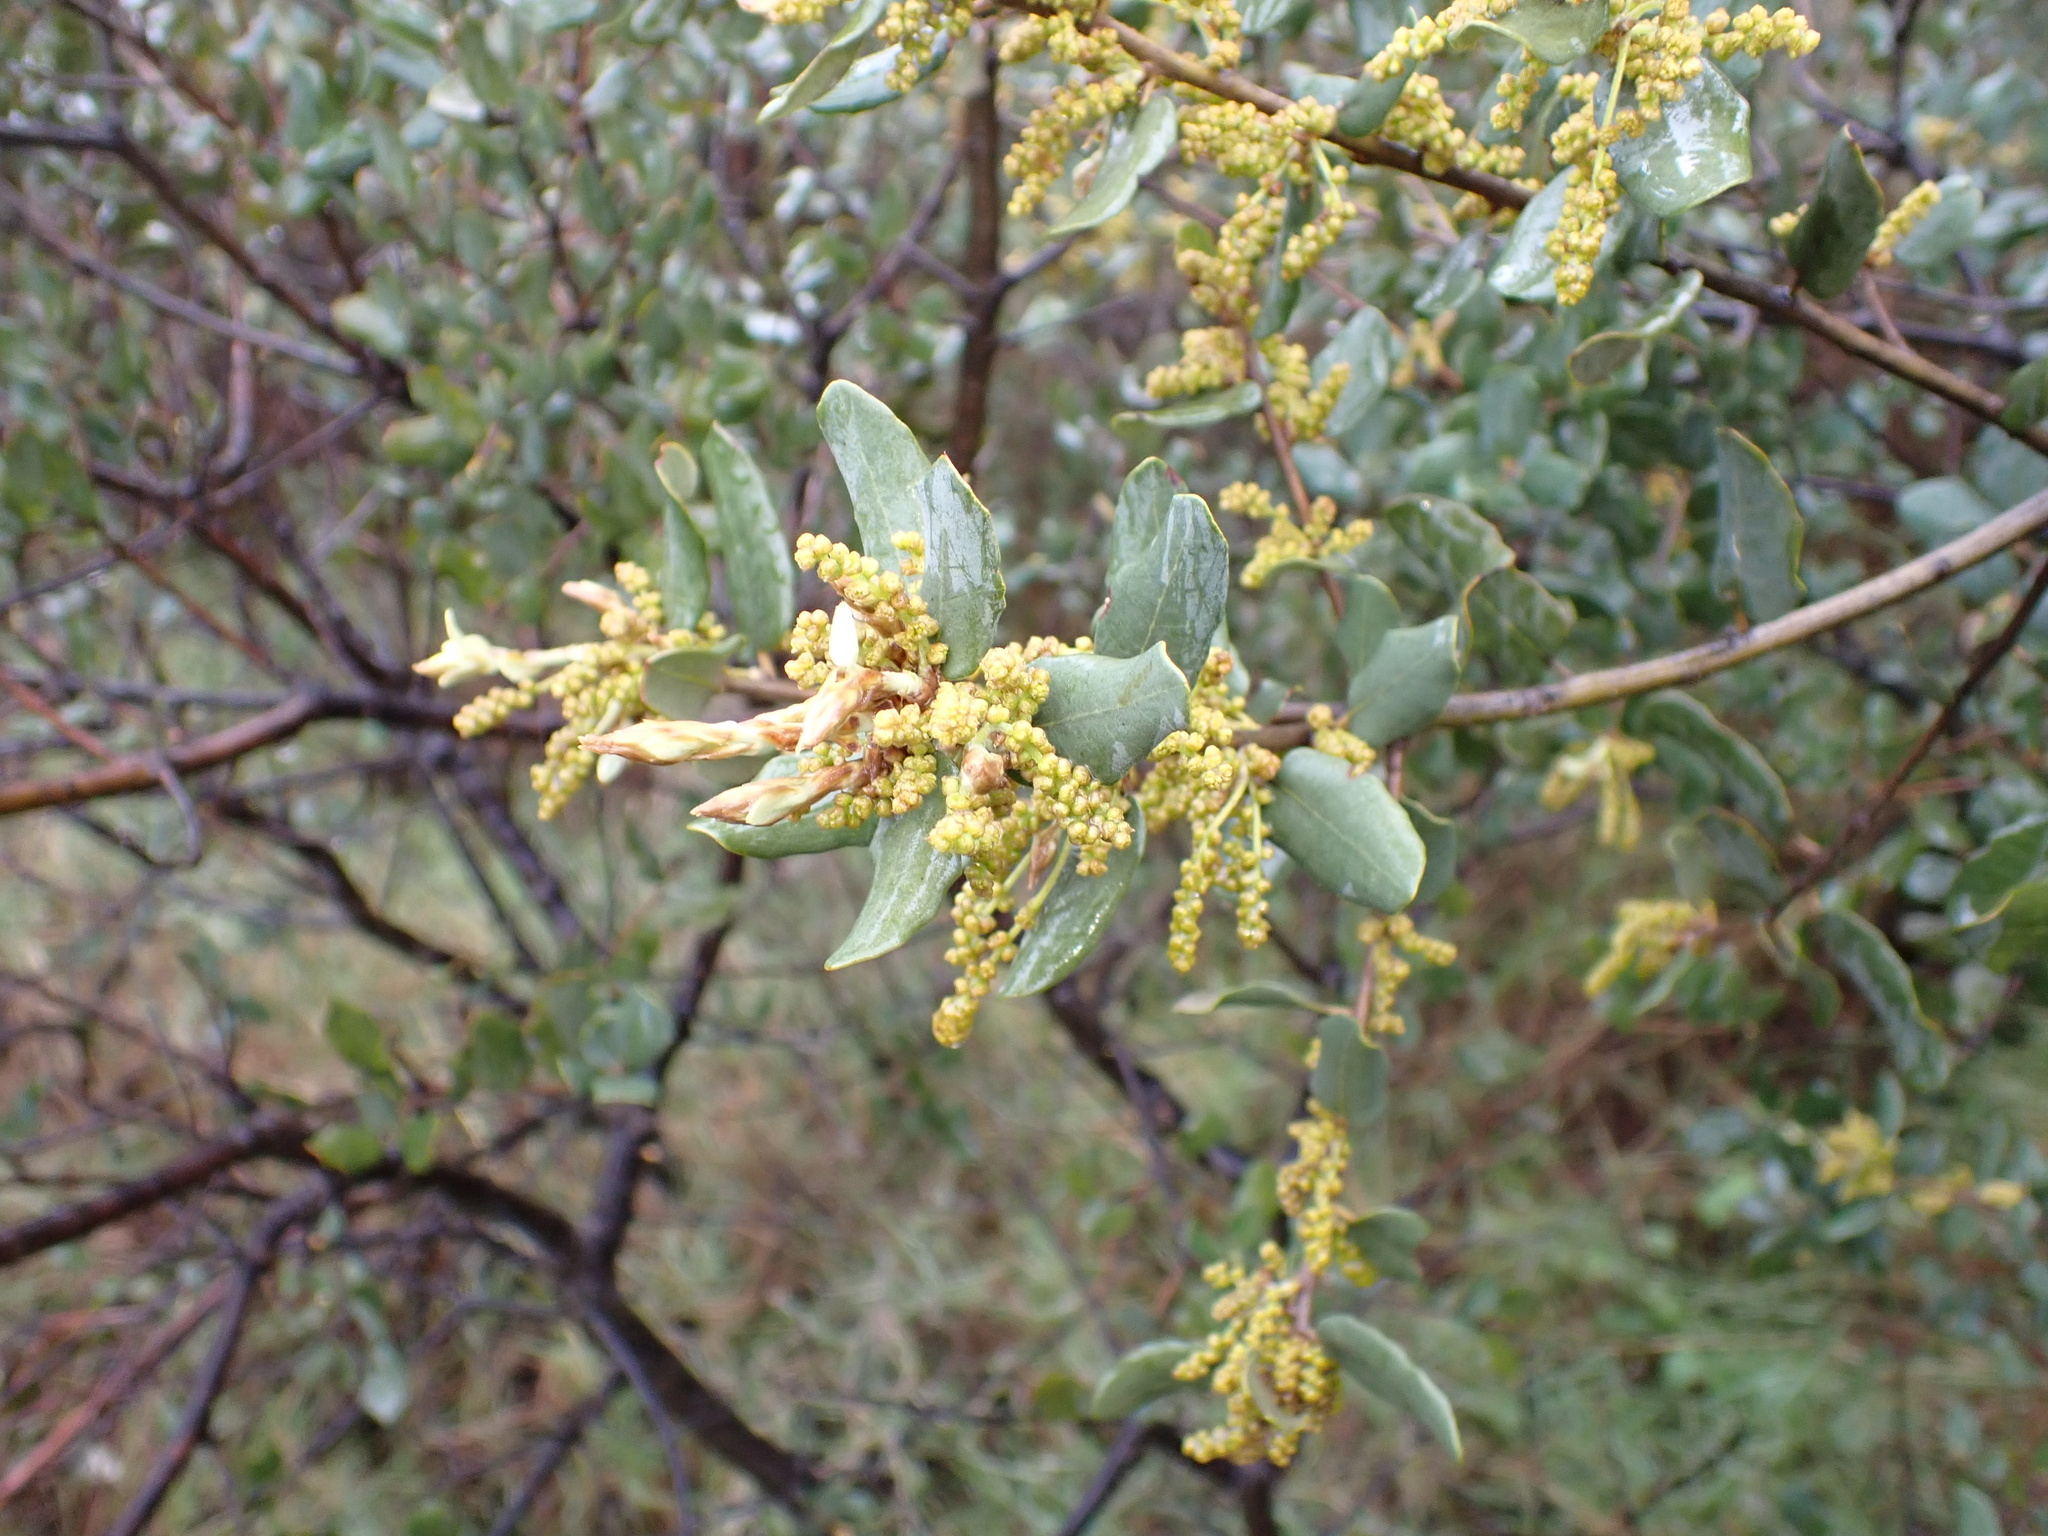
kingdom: Plantae
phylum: Tracheophyta
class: Magnoliopsida
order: Fagales
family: Fagaceae
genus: Quercus
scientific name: Quercus rotundifolia
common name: Holm oak
